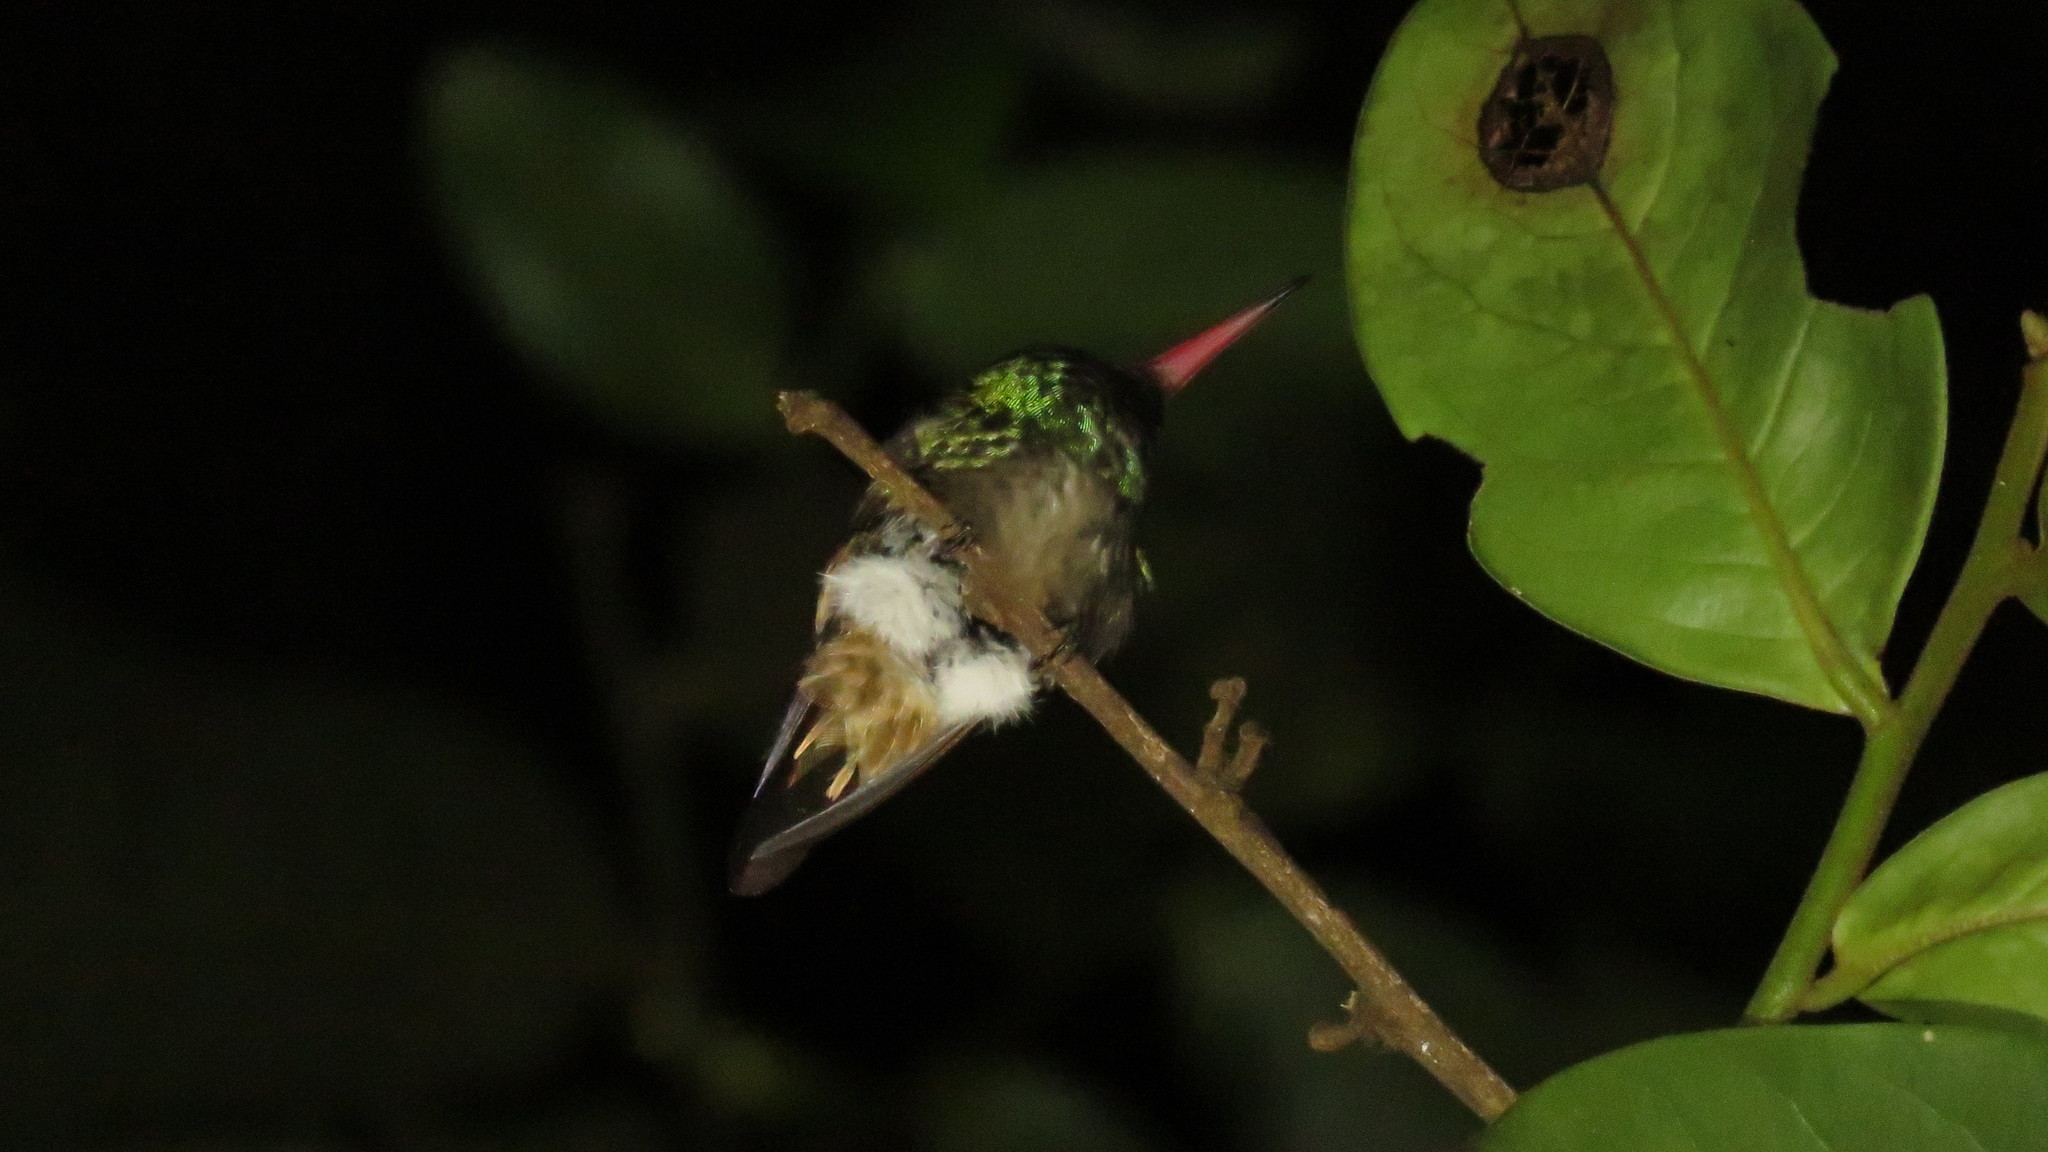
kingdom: Animalia
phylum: Chordata
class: Aves
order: Apodiformes
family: Trochilidae
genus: Chlorestes
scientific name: Chlorestes eliciae
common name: Blue-throated sapphire
